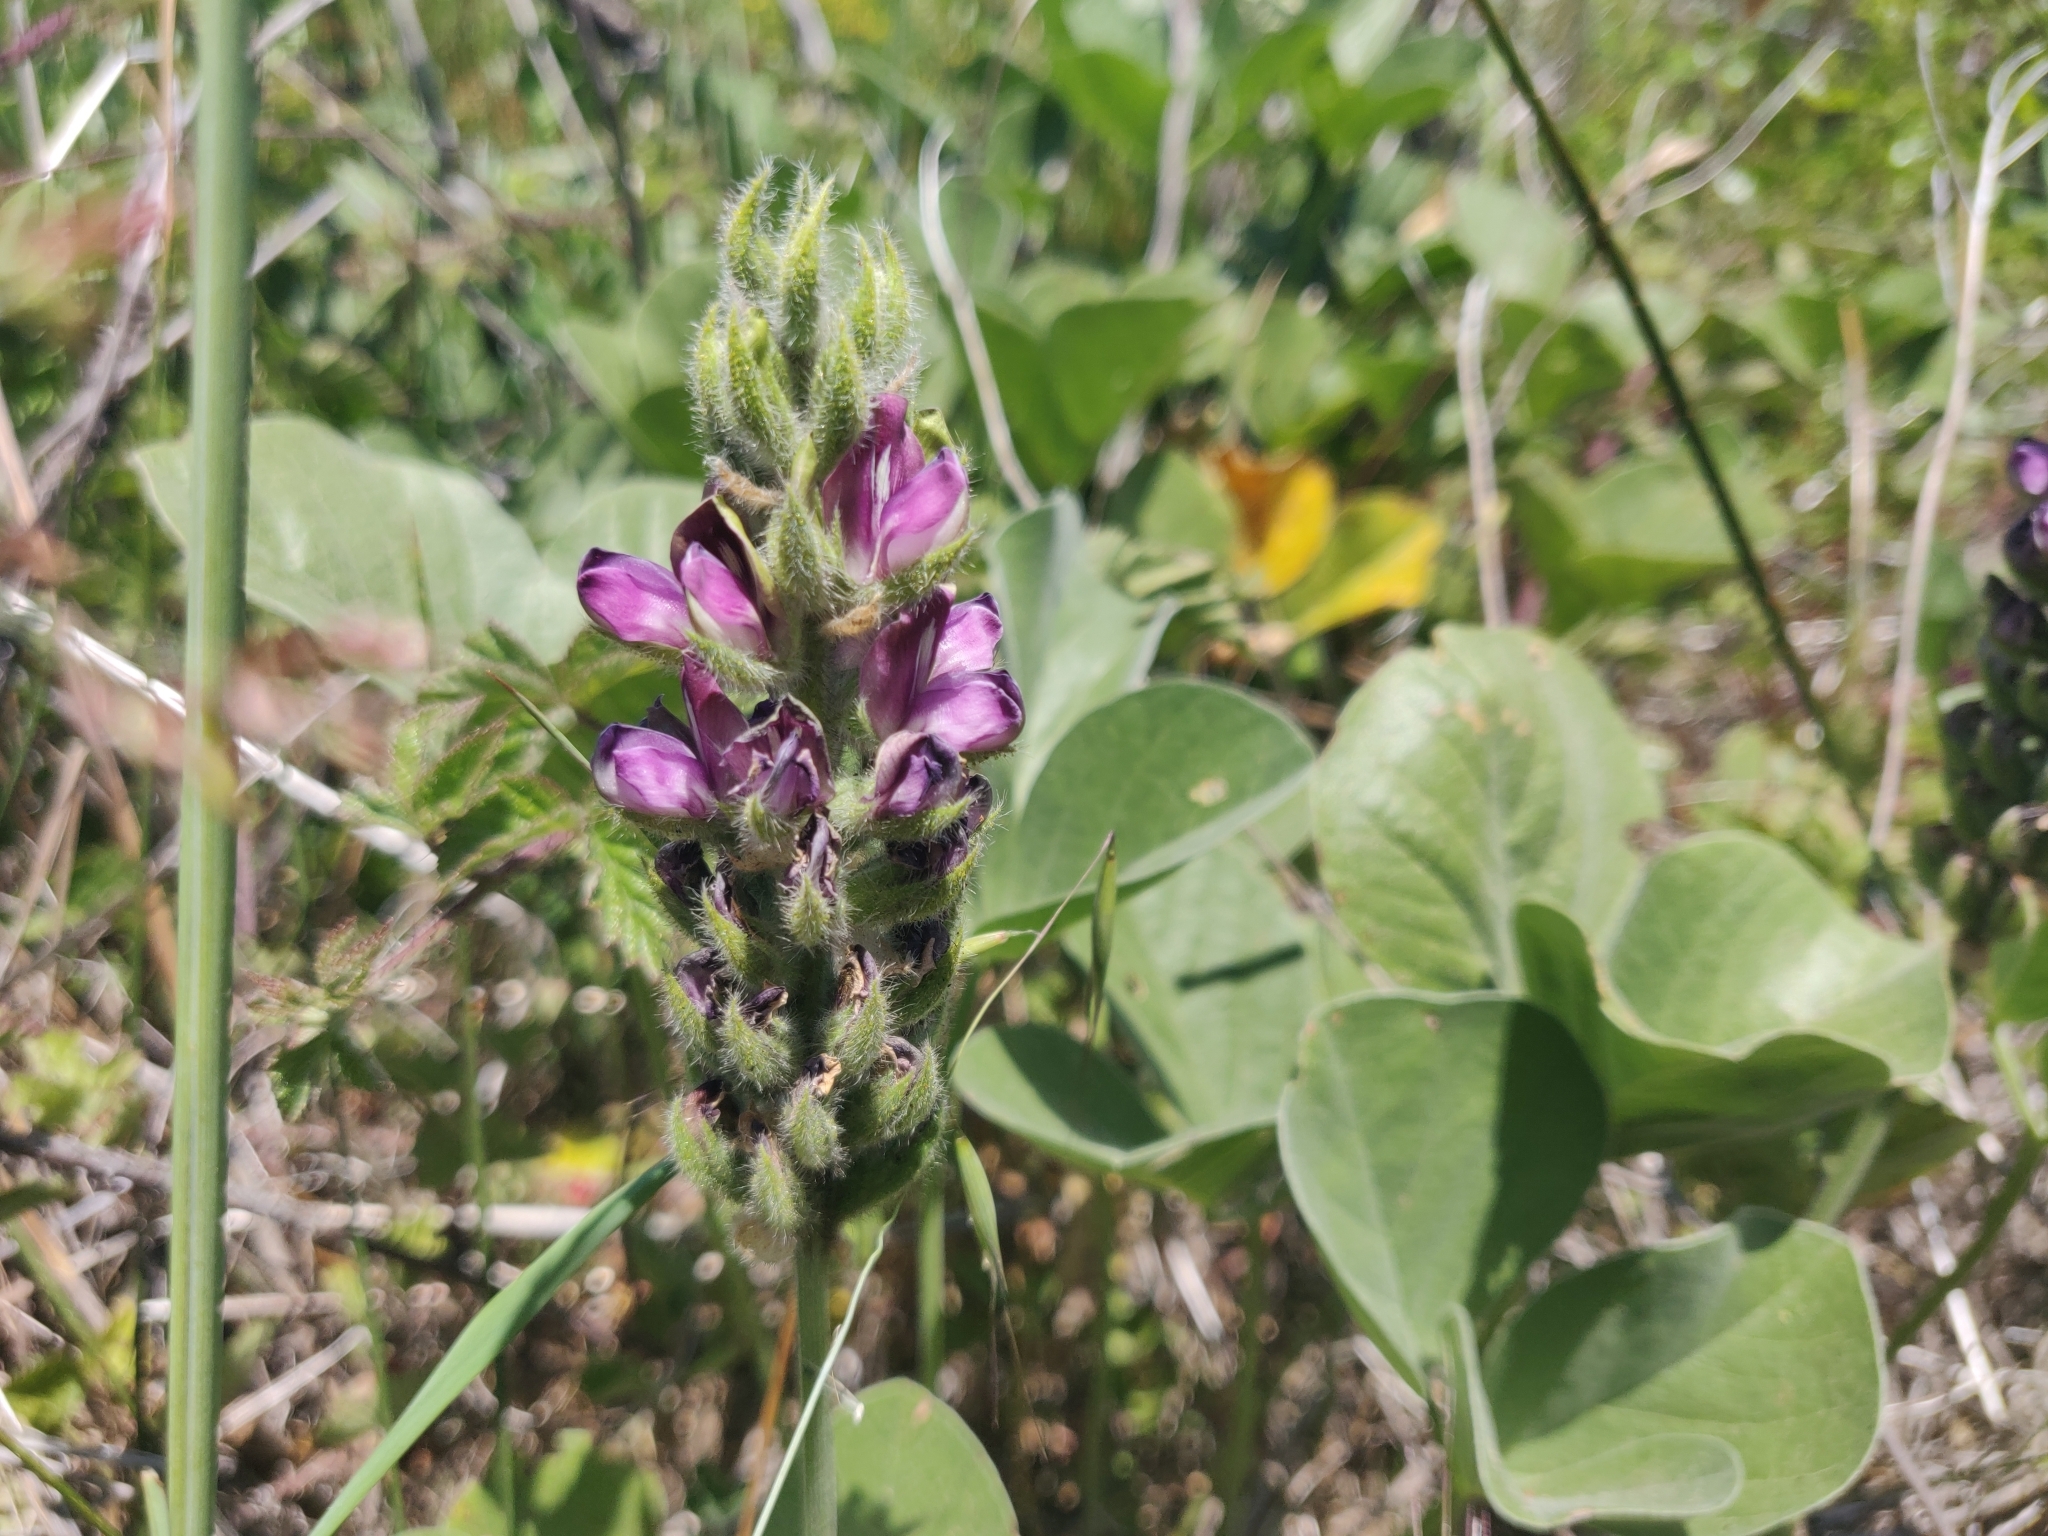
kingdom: Plantae
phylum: Tracheophyta
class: Magnoliopsida
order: Fabales
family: Fabaceae
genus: Hoita
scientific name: Hoita orbicularis
